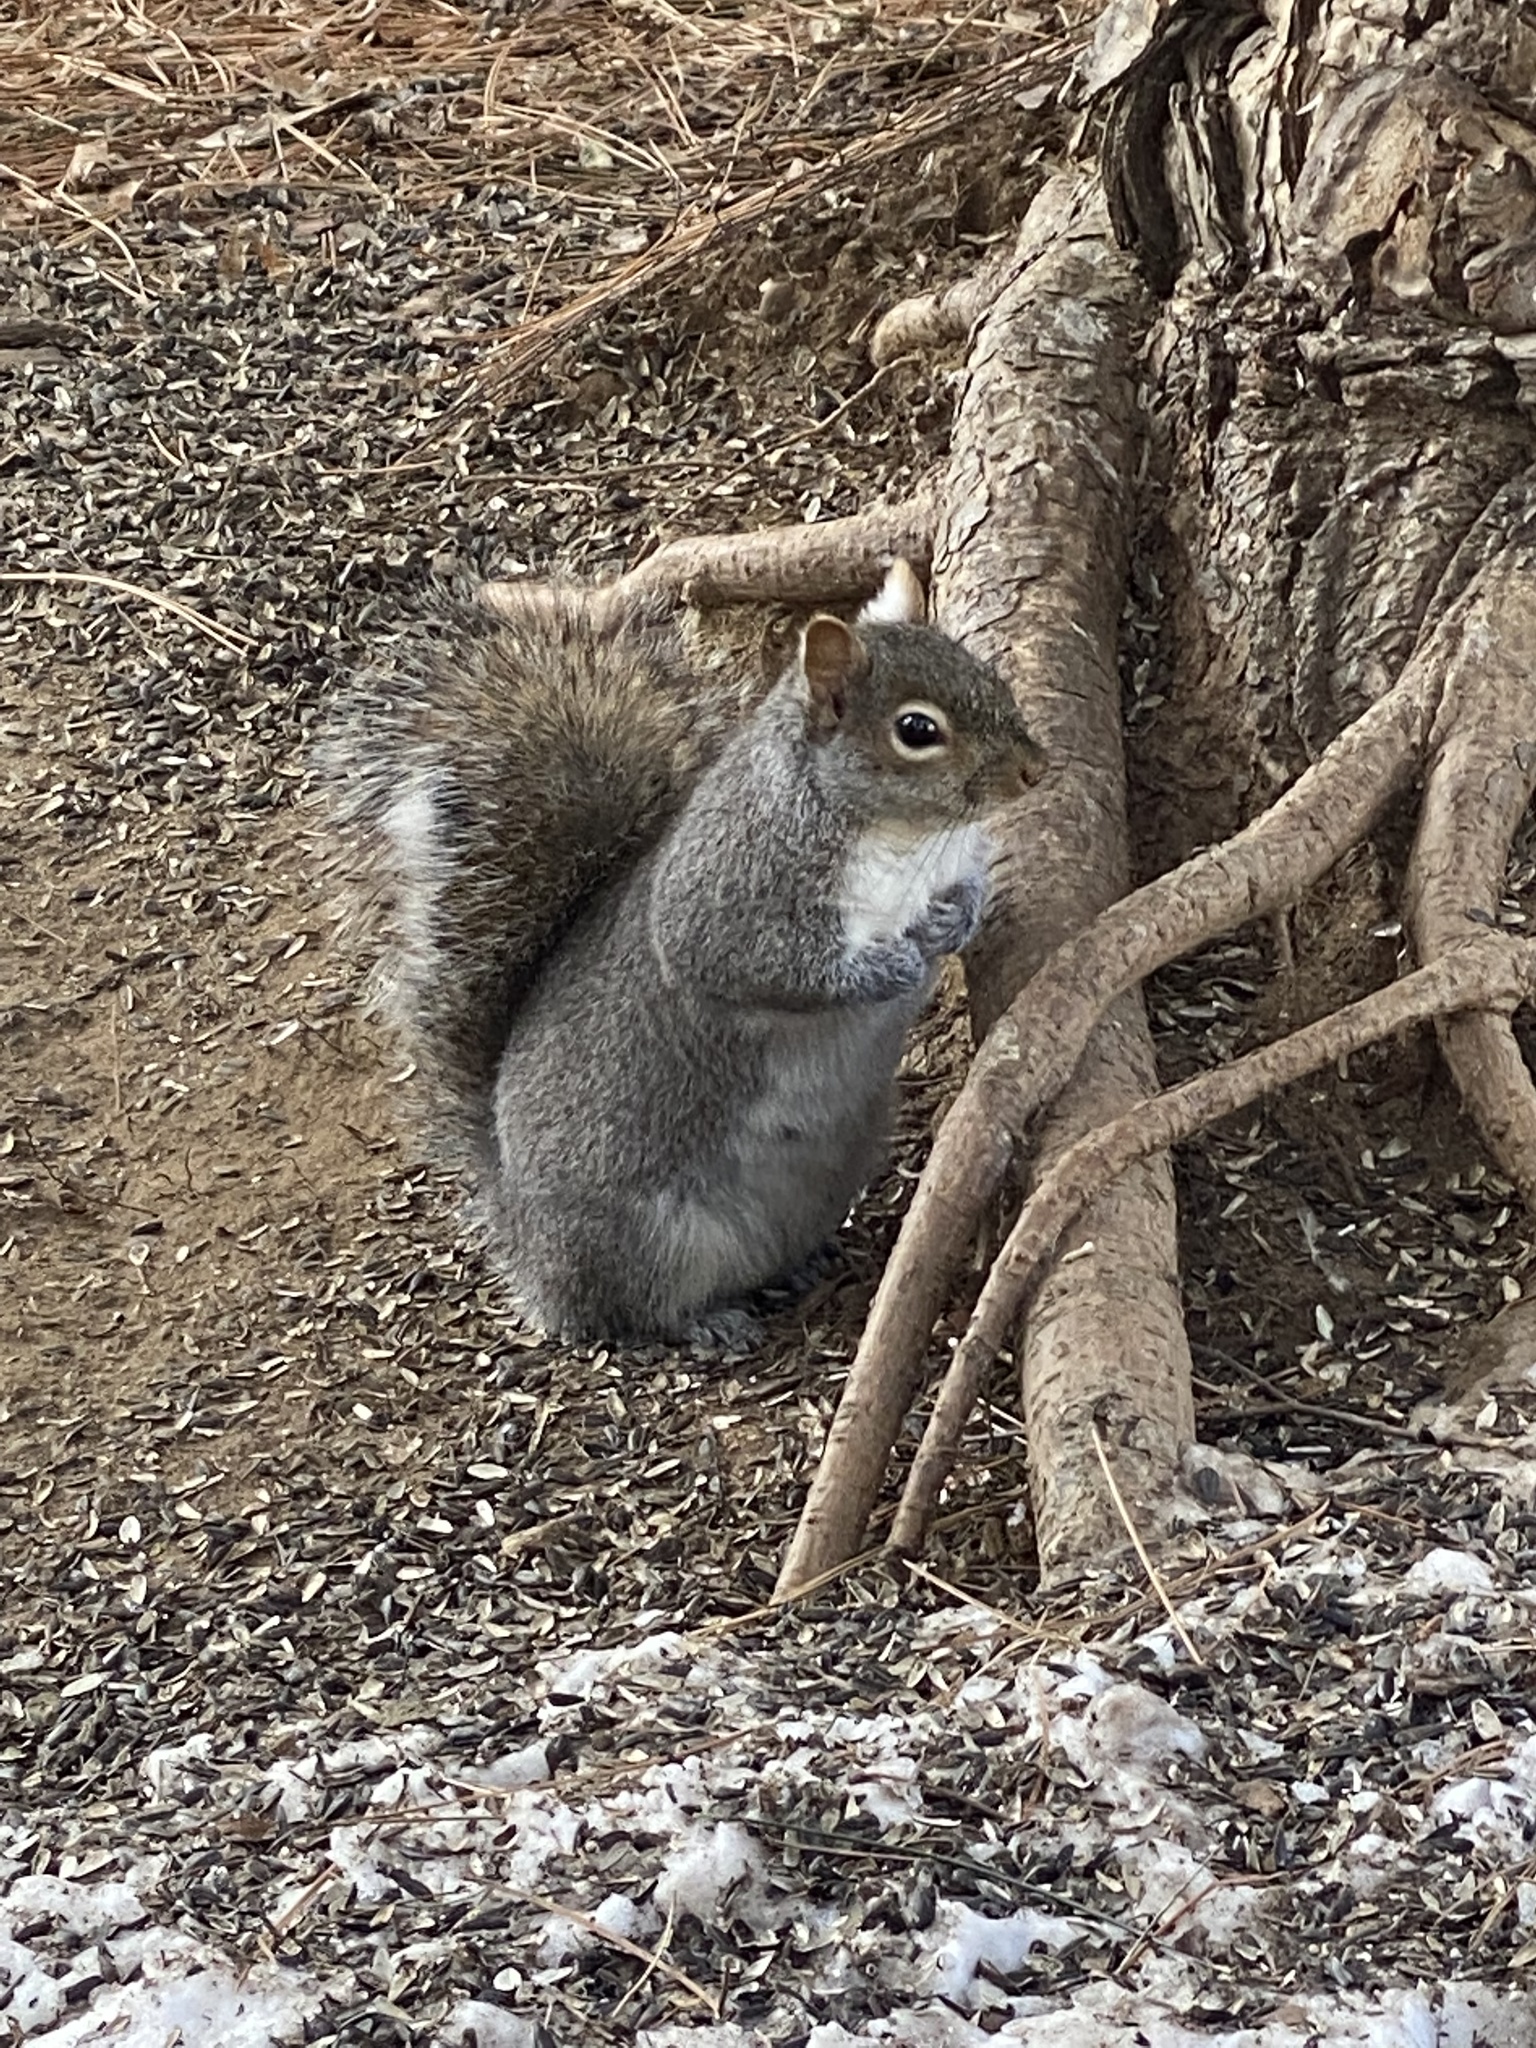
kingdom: Animalia
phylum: Chordata
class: Mammalia
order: Rodentia
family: Sciuridae
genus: Sciurus
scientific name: Sciurus carolinensis
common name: Eastern gray squirrel
